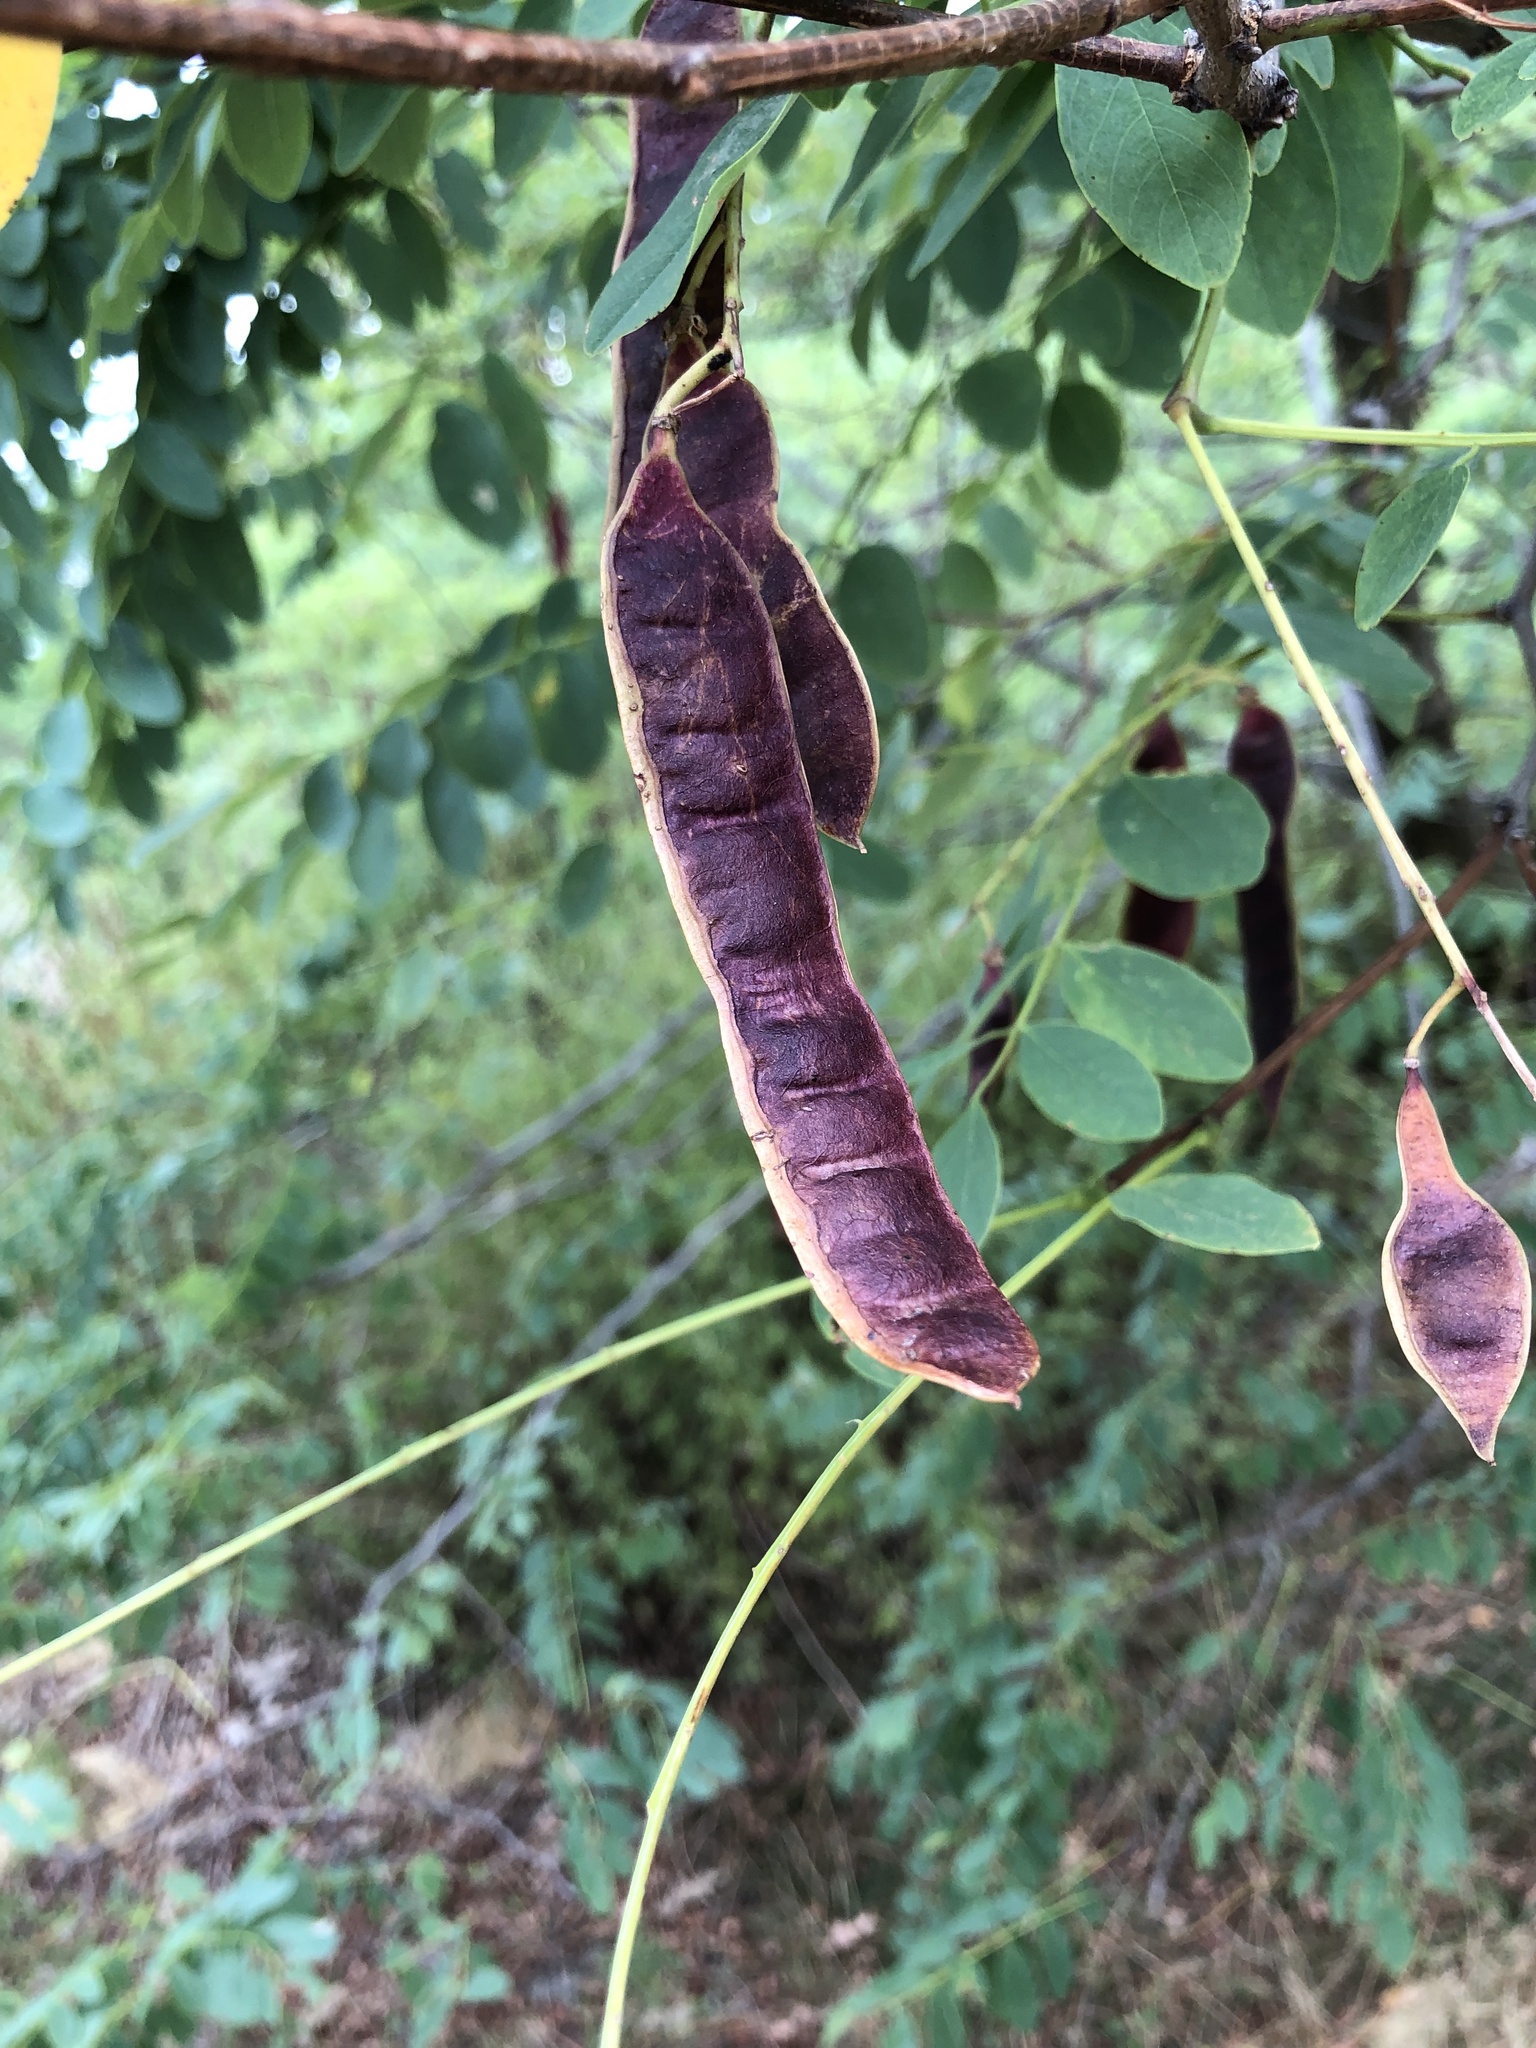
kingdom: Plantae
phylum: Tracheophyta
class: Magnoliopsida
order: Fabales
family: Fabaceae
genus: Robinia
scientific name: Robinia pseudoacacia
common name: Black locust
